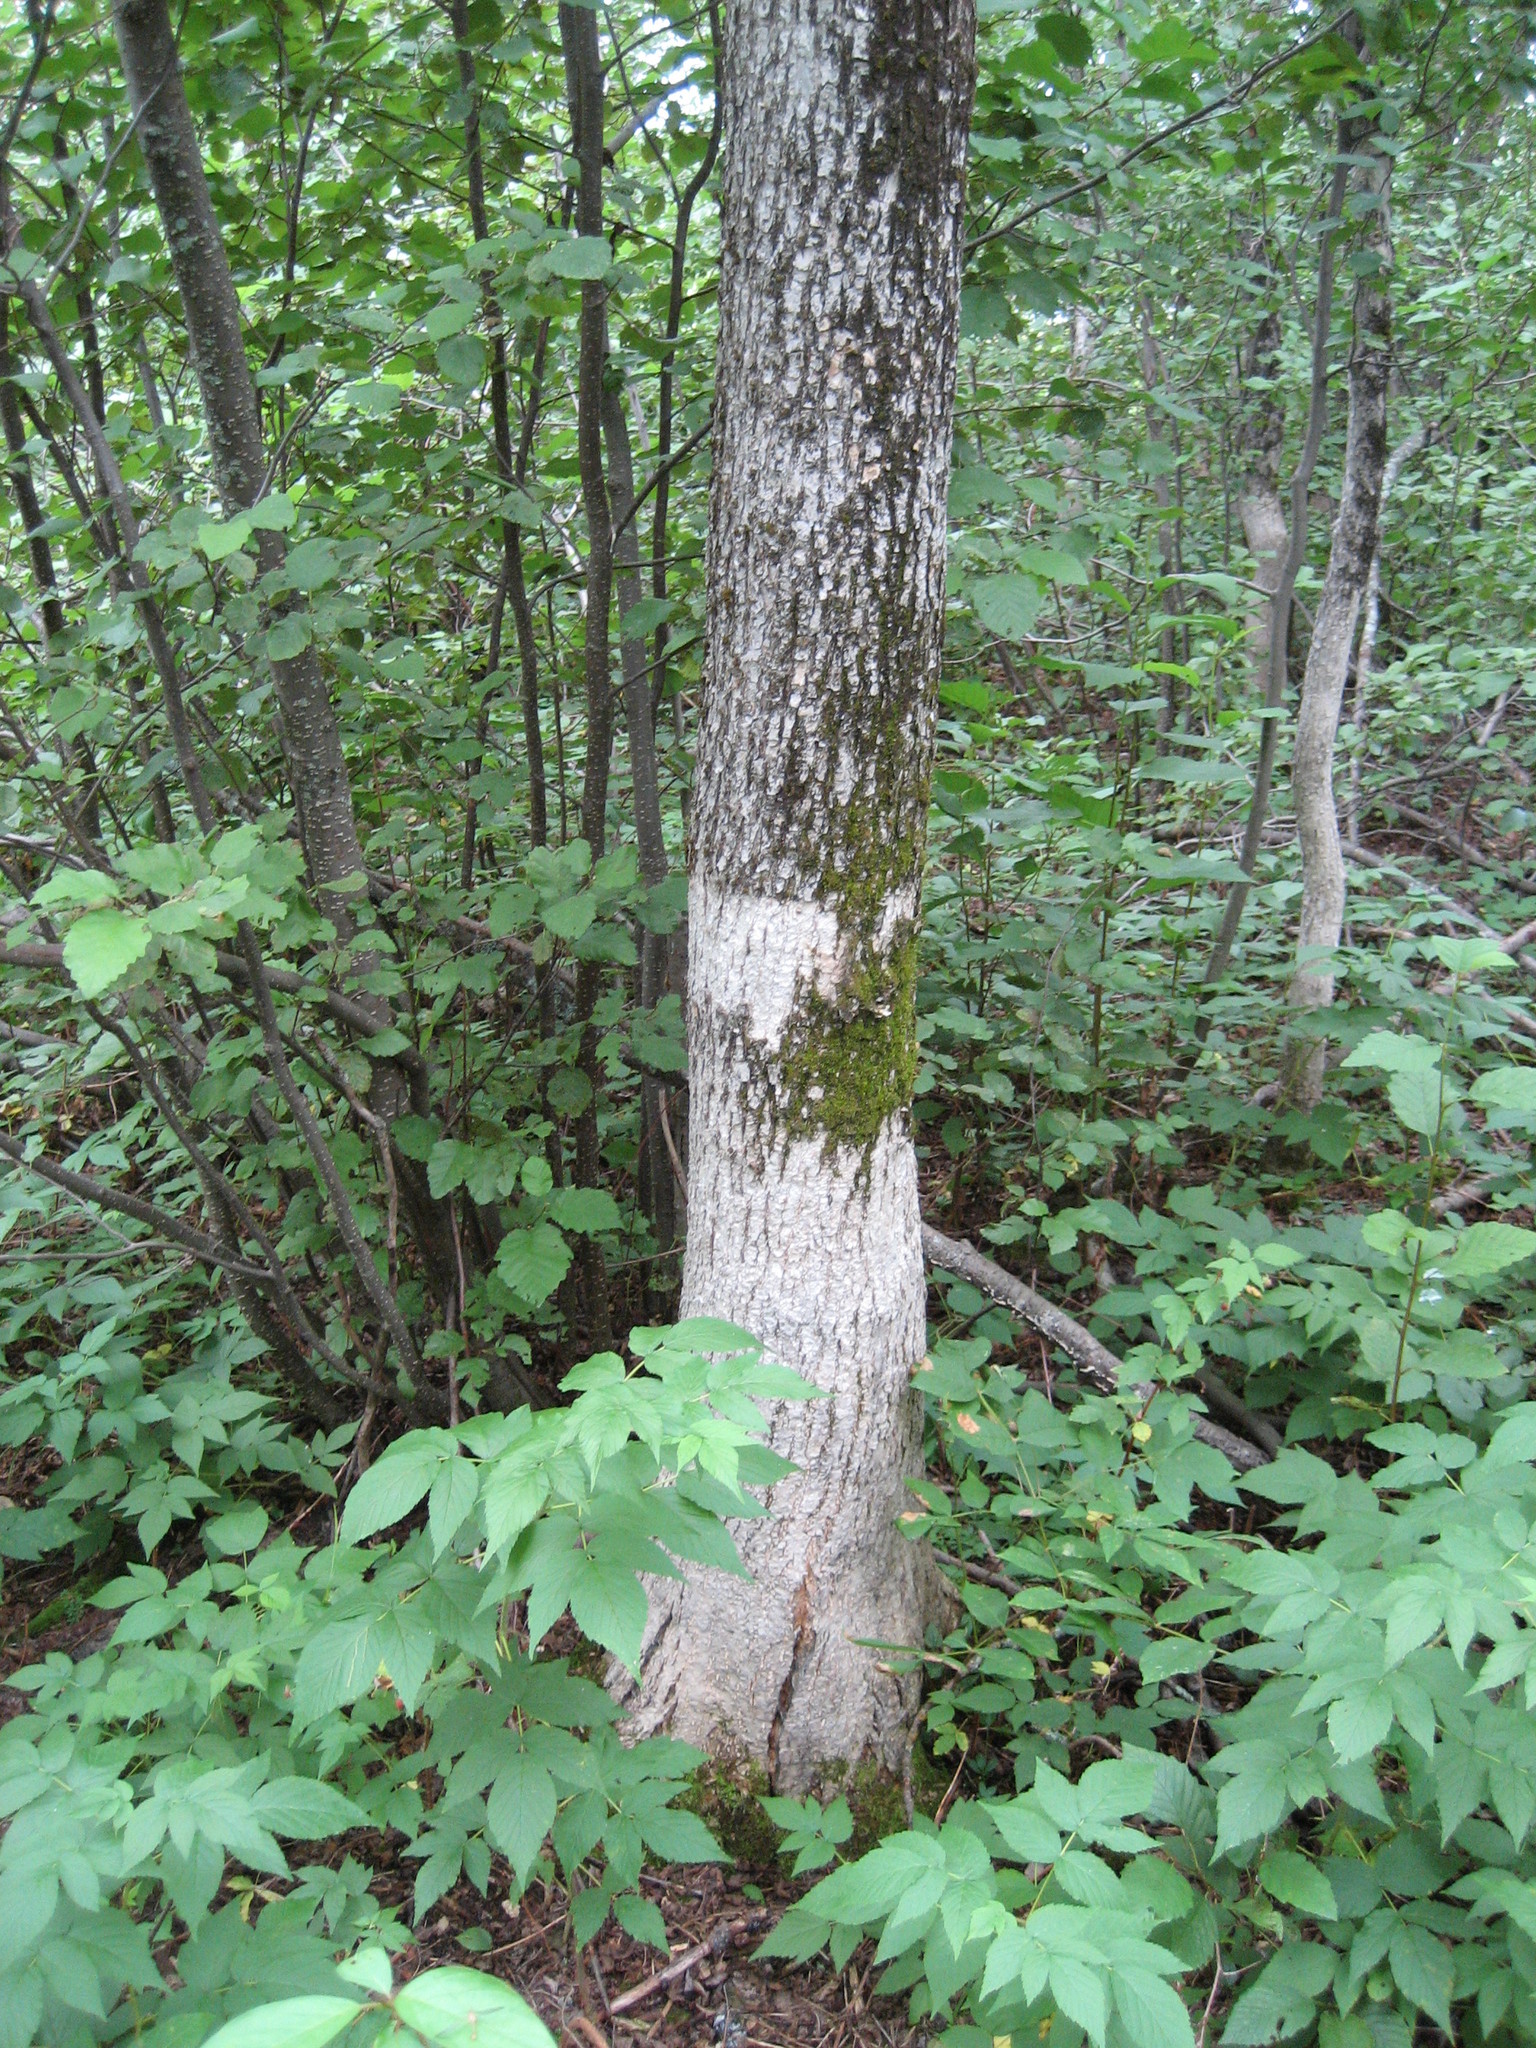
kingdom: Plantae
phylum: Tracheophyta
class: Magnoliopsida
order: Lamiales
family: Oleaceae
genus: Fraxinus
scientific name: Fraxinus nigra
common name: Black ash
